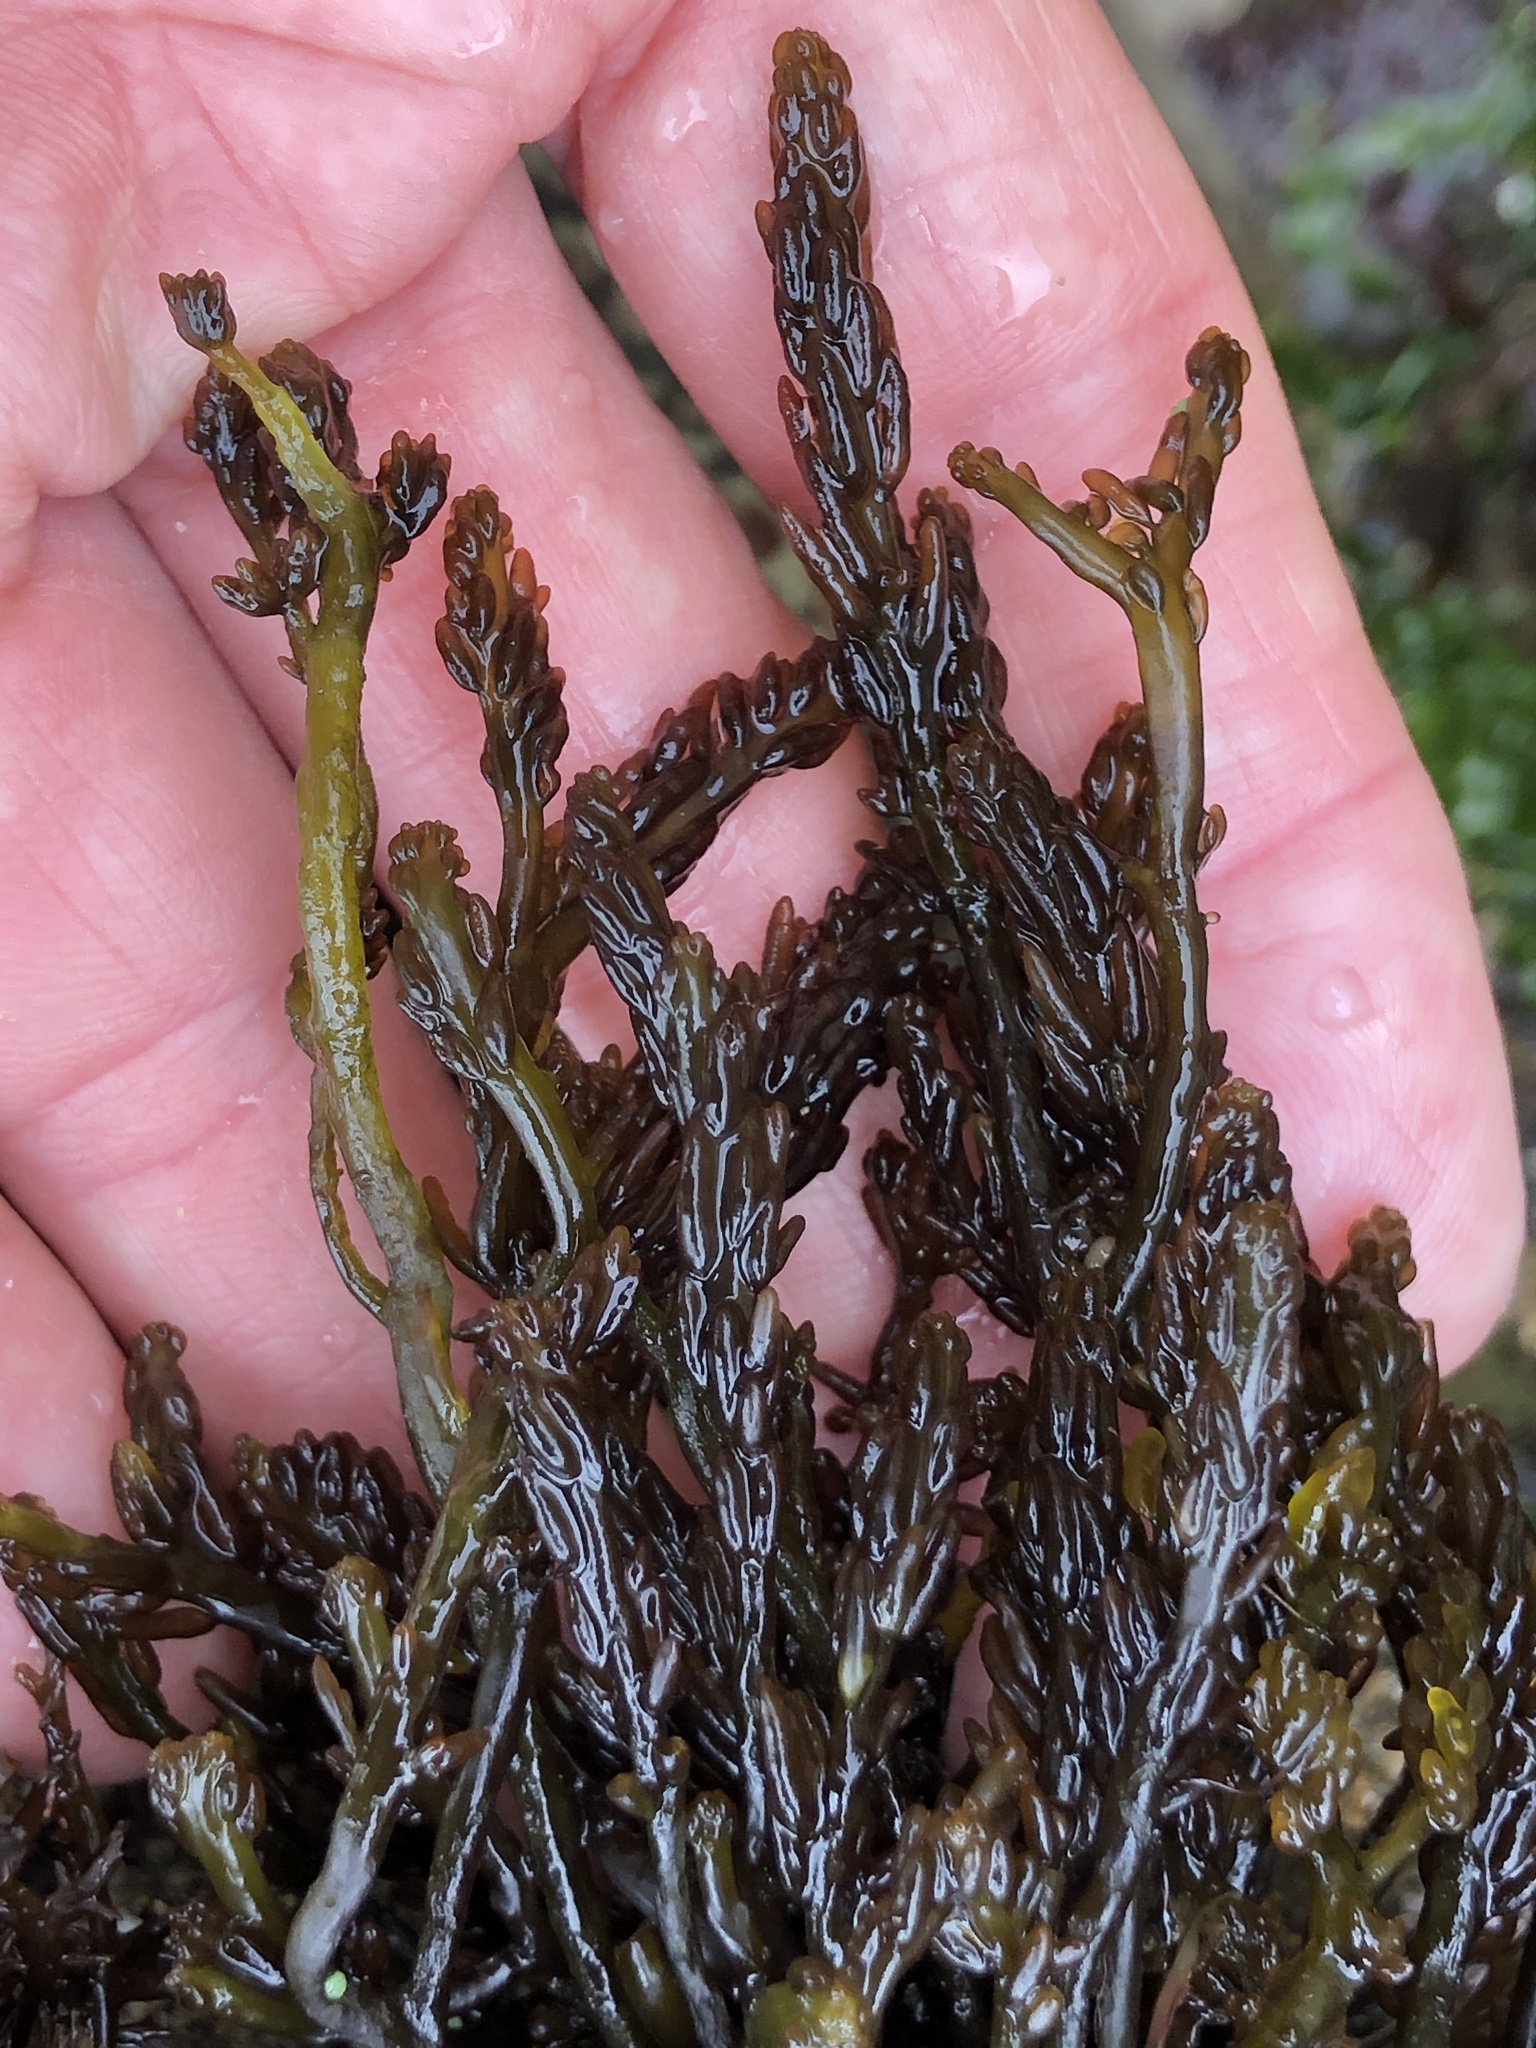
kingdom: Plantae
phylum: Rhodophyta
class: Florideophyceae
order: Rhodymeniales
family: Champiaceae
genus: Neogastroclonium
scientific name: Neogastroclonium subarticulatum
